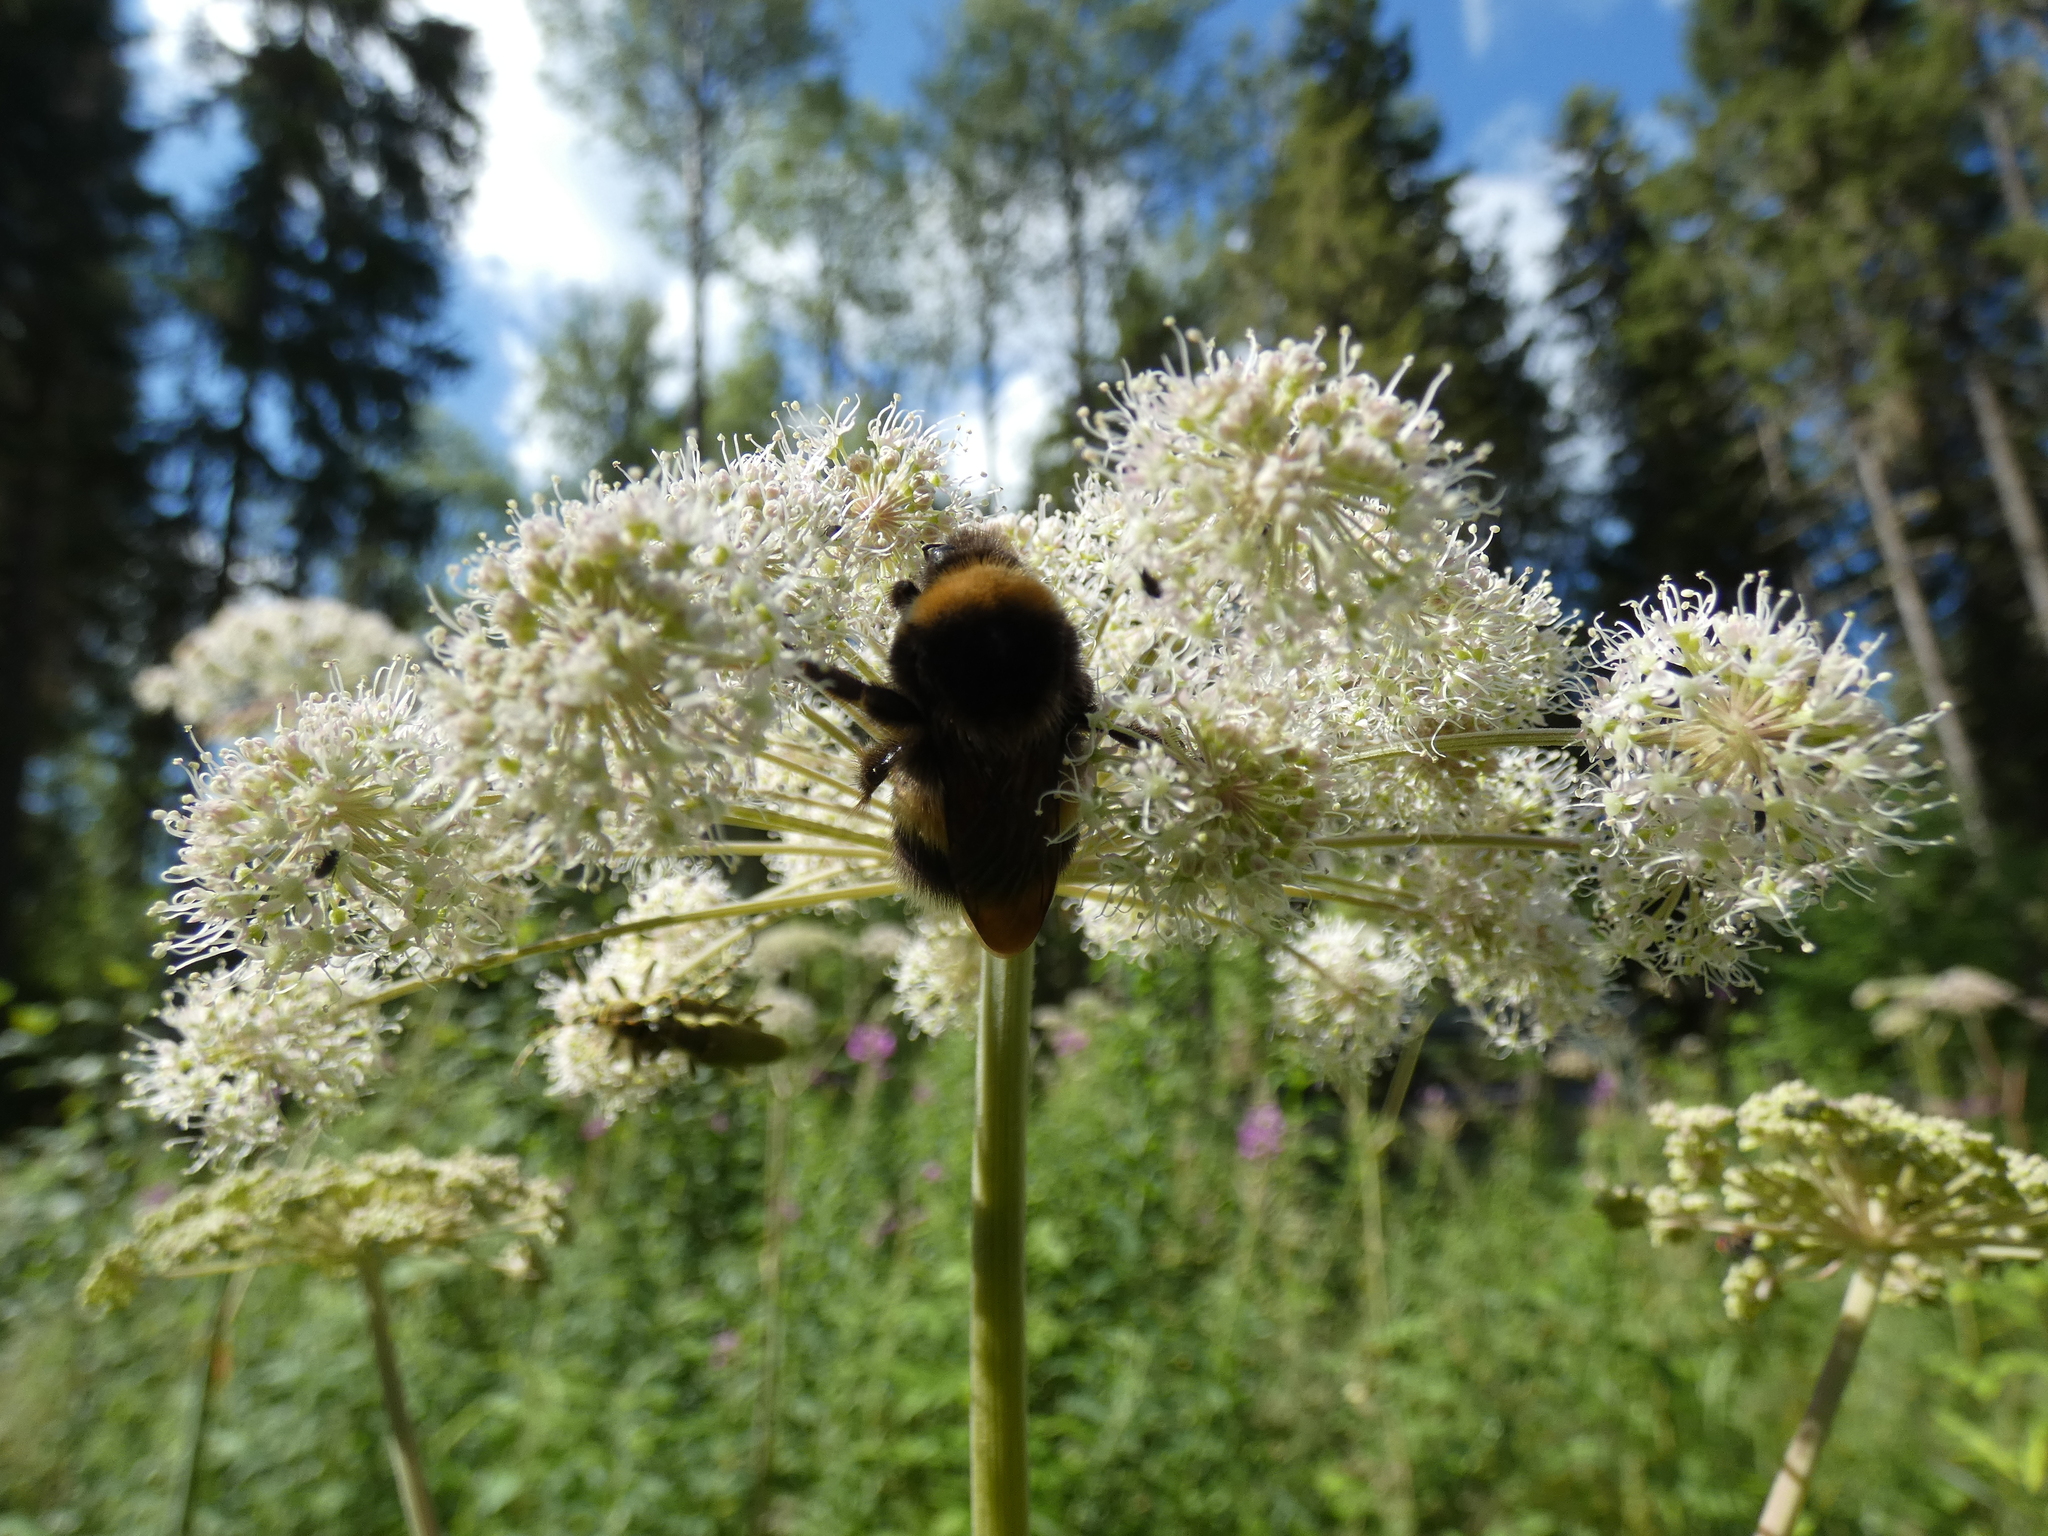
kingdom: Animalia
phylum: Arthropoda
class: Insecta
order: Hymenoptera
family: Apidae
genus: Bombus
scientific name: Bombus sporadicus
